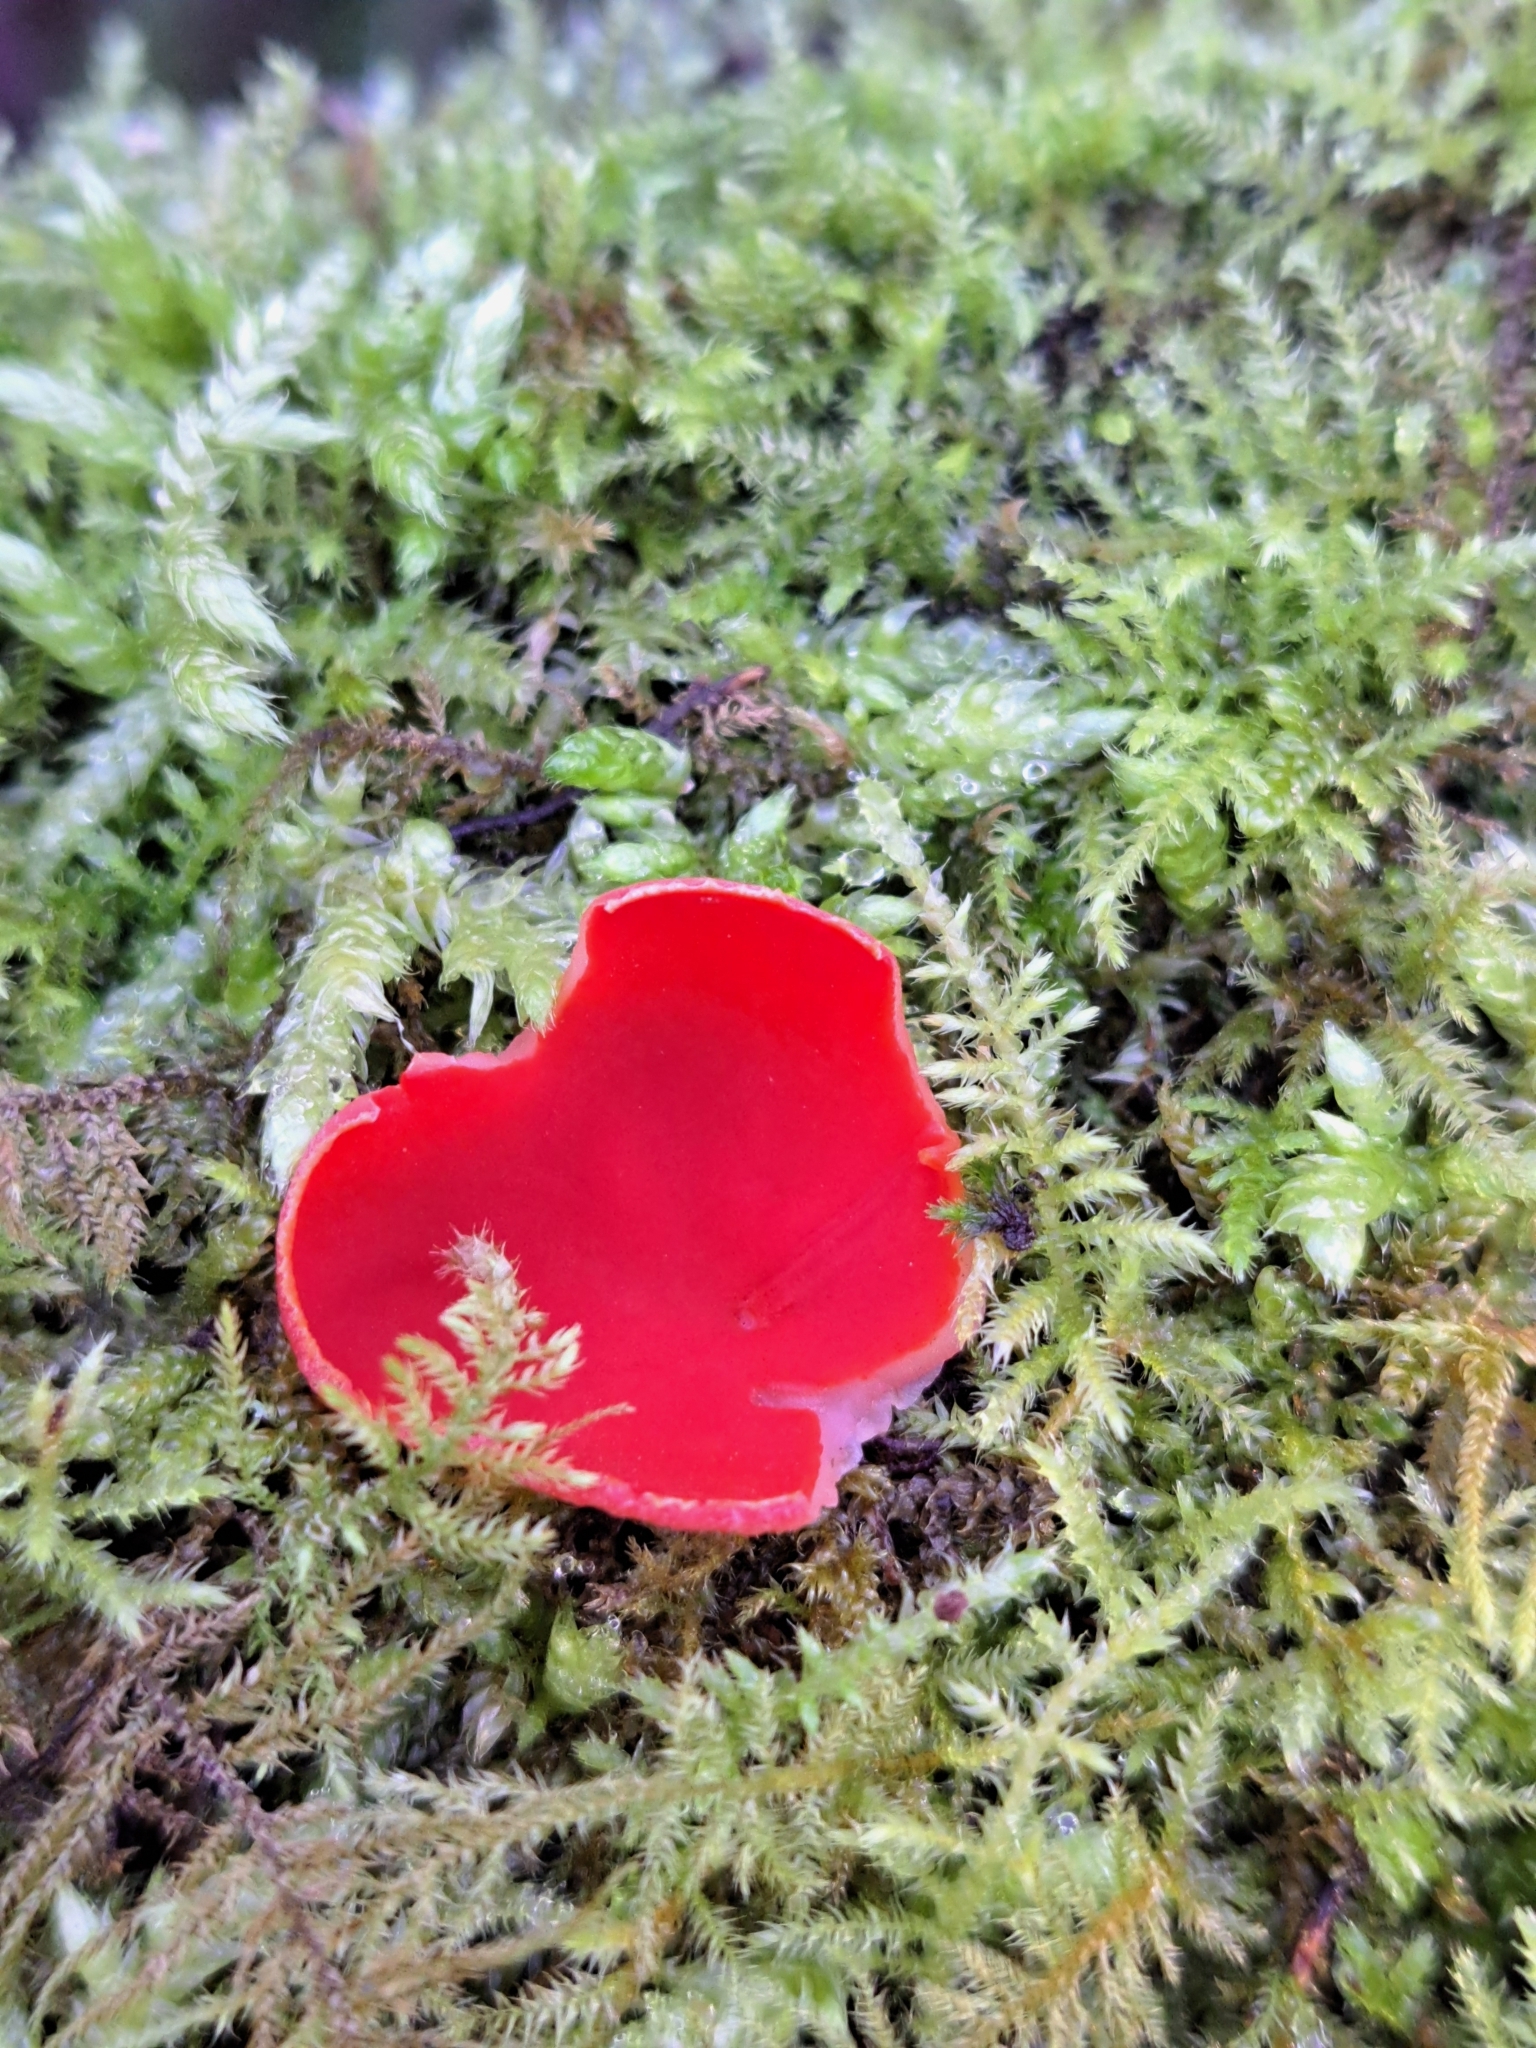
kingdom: Fungi
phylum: Ascomycota
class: Pezizomycetes
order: Pezizales
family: Sarcoscyphaceae
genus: Sarcoscypha
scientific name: Sarcoscypha
